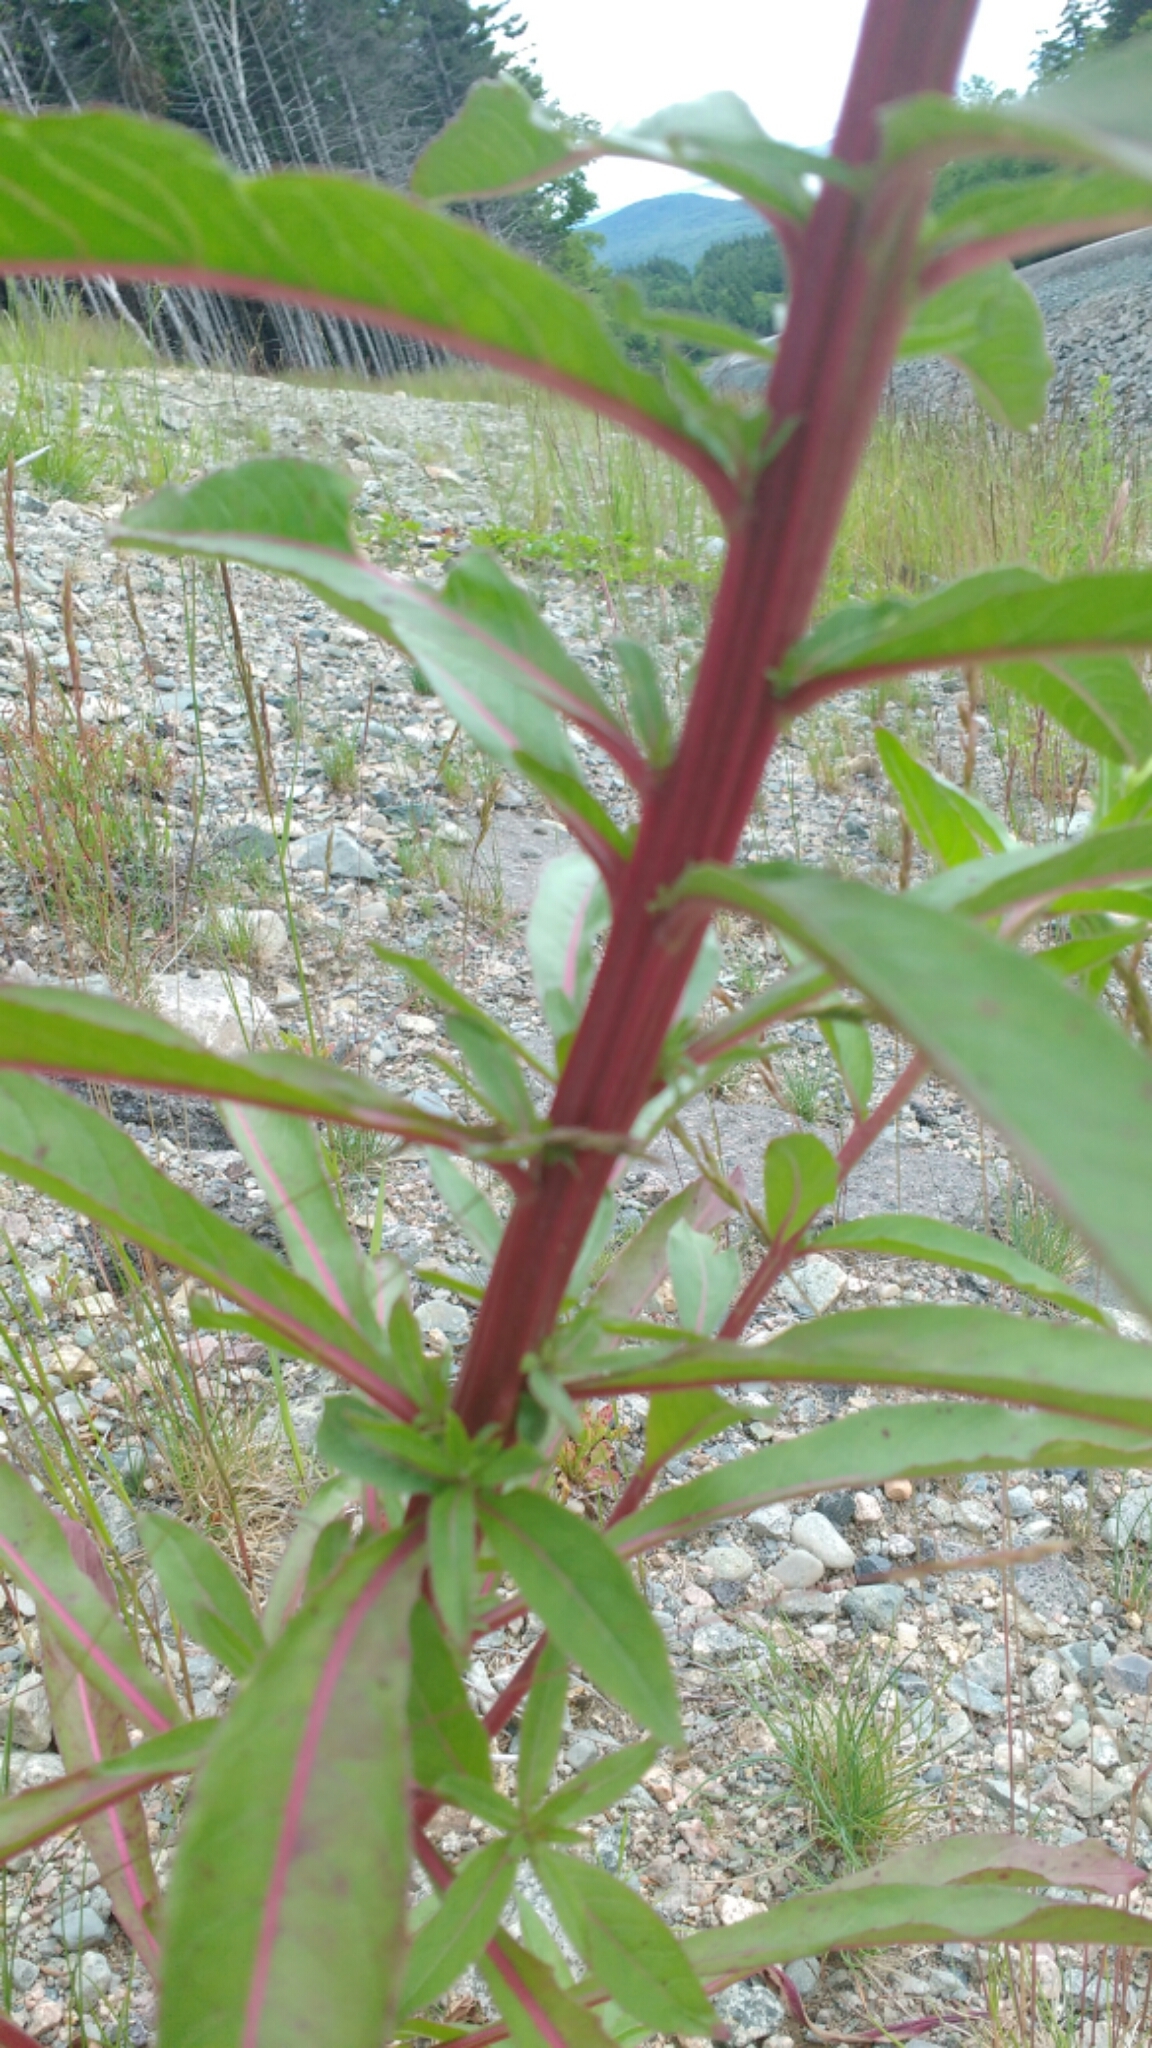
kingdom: Plantae
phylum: Tracheophyta
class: Magnoliopsida
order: Myrtales
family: Onagraceae
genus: Oenothera
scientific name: Oenothera parviflora
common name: Least evening-primrose
